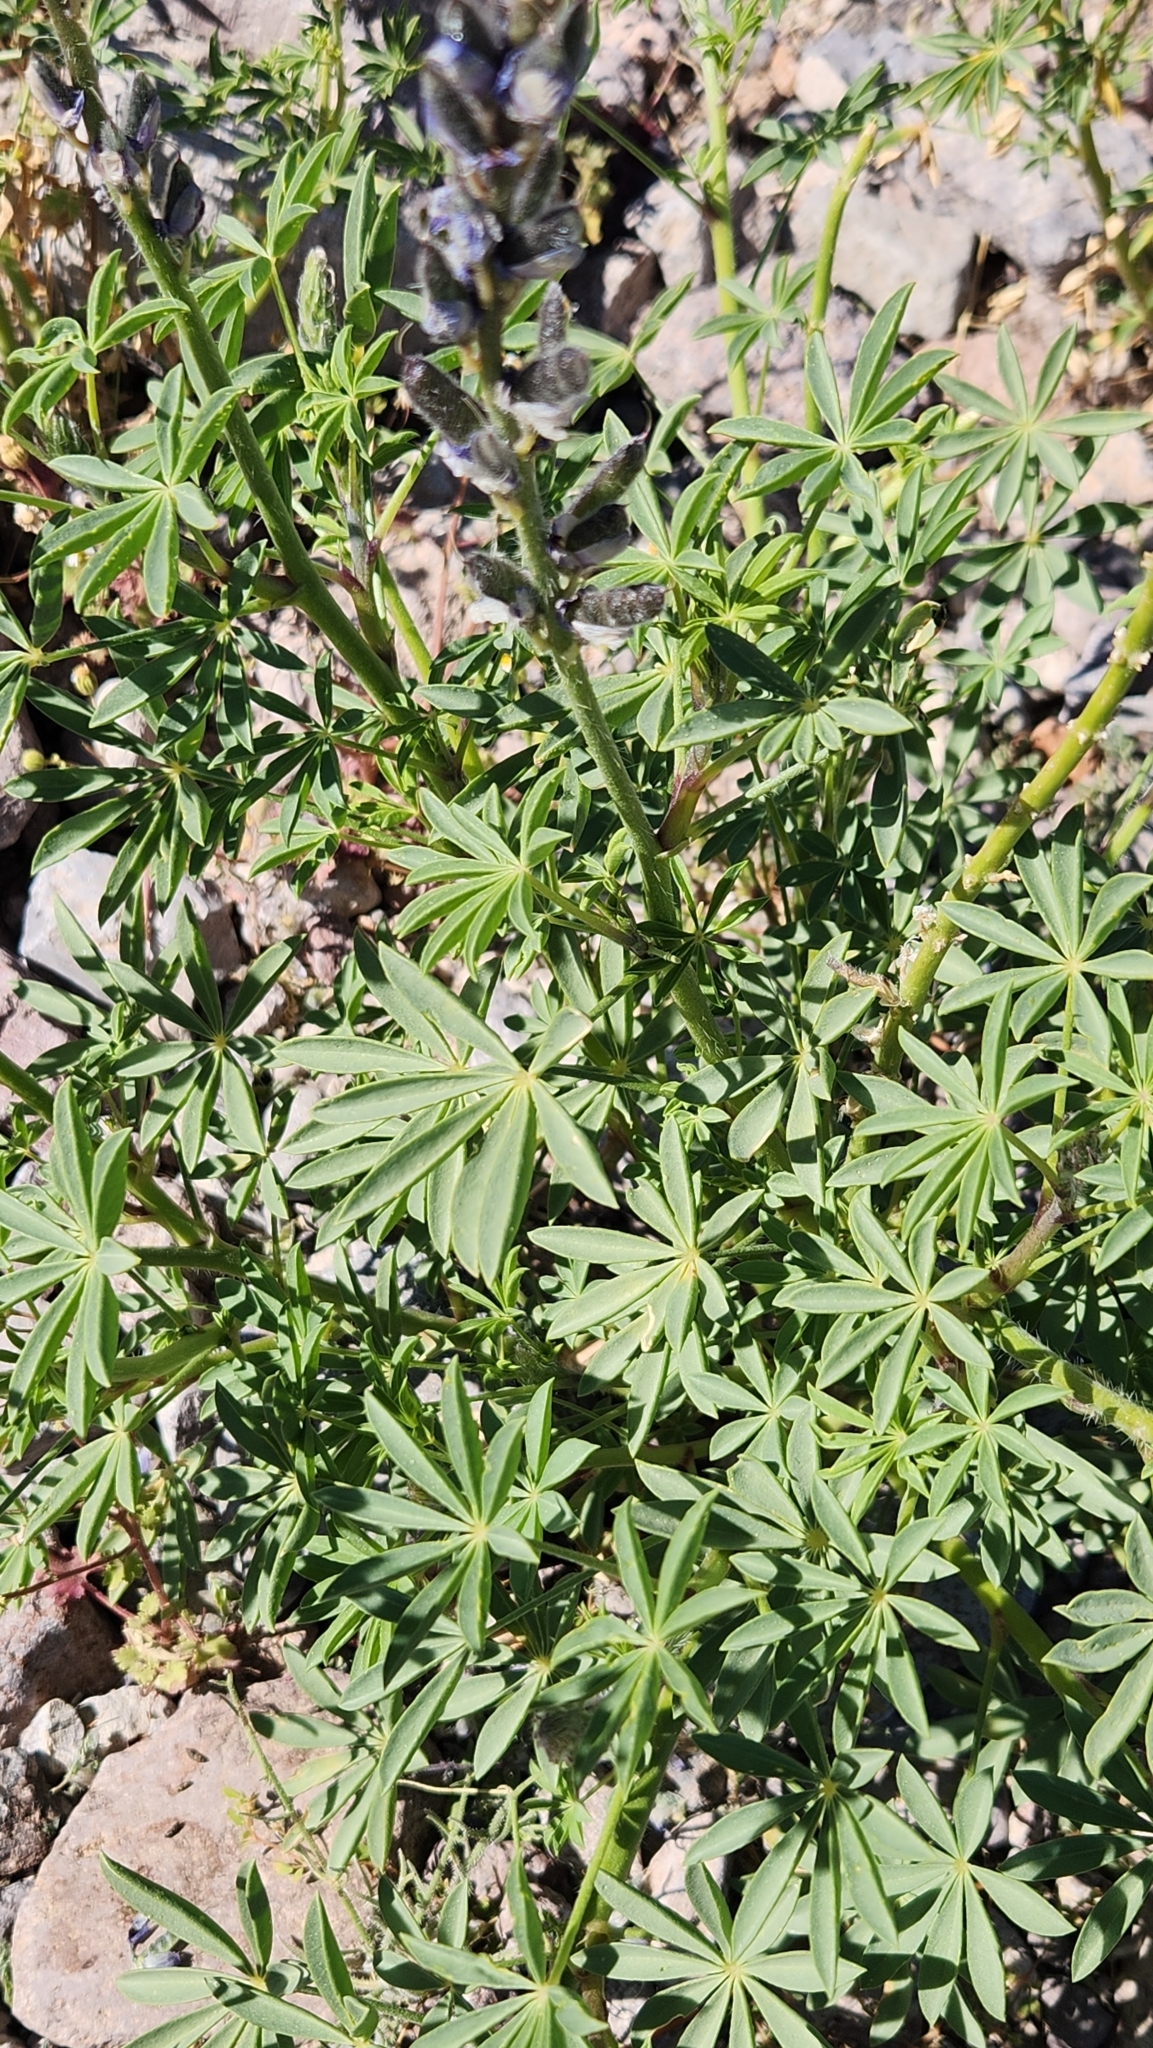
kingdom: Plantae
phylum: Tracheophyta
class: Magnoliopsida
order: Fabales
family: Fabaceae
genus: Lupinus
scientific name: Lupinus arizonicus
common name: Arizona lupine
